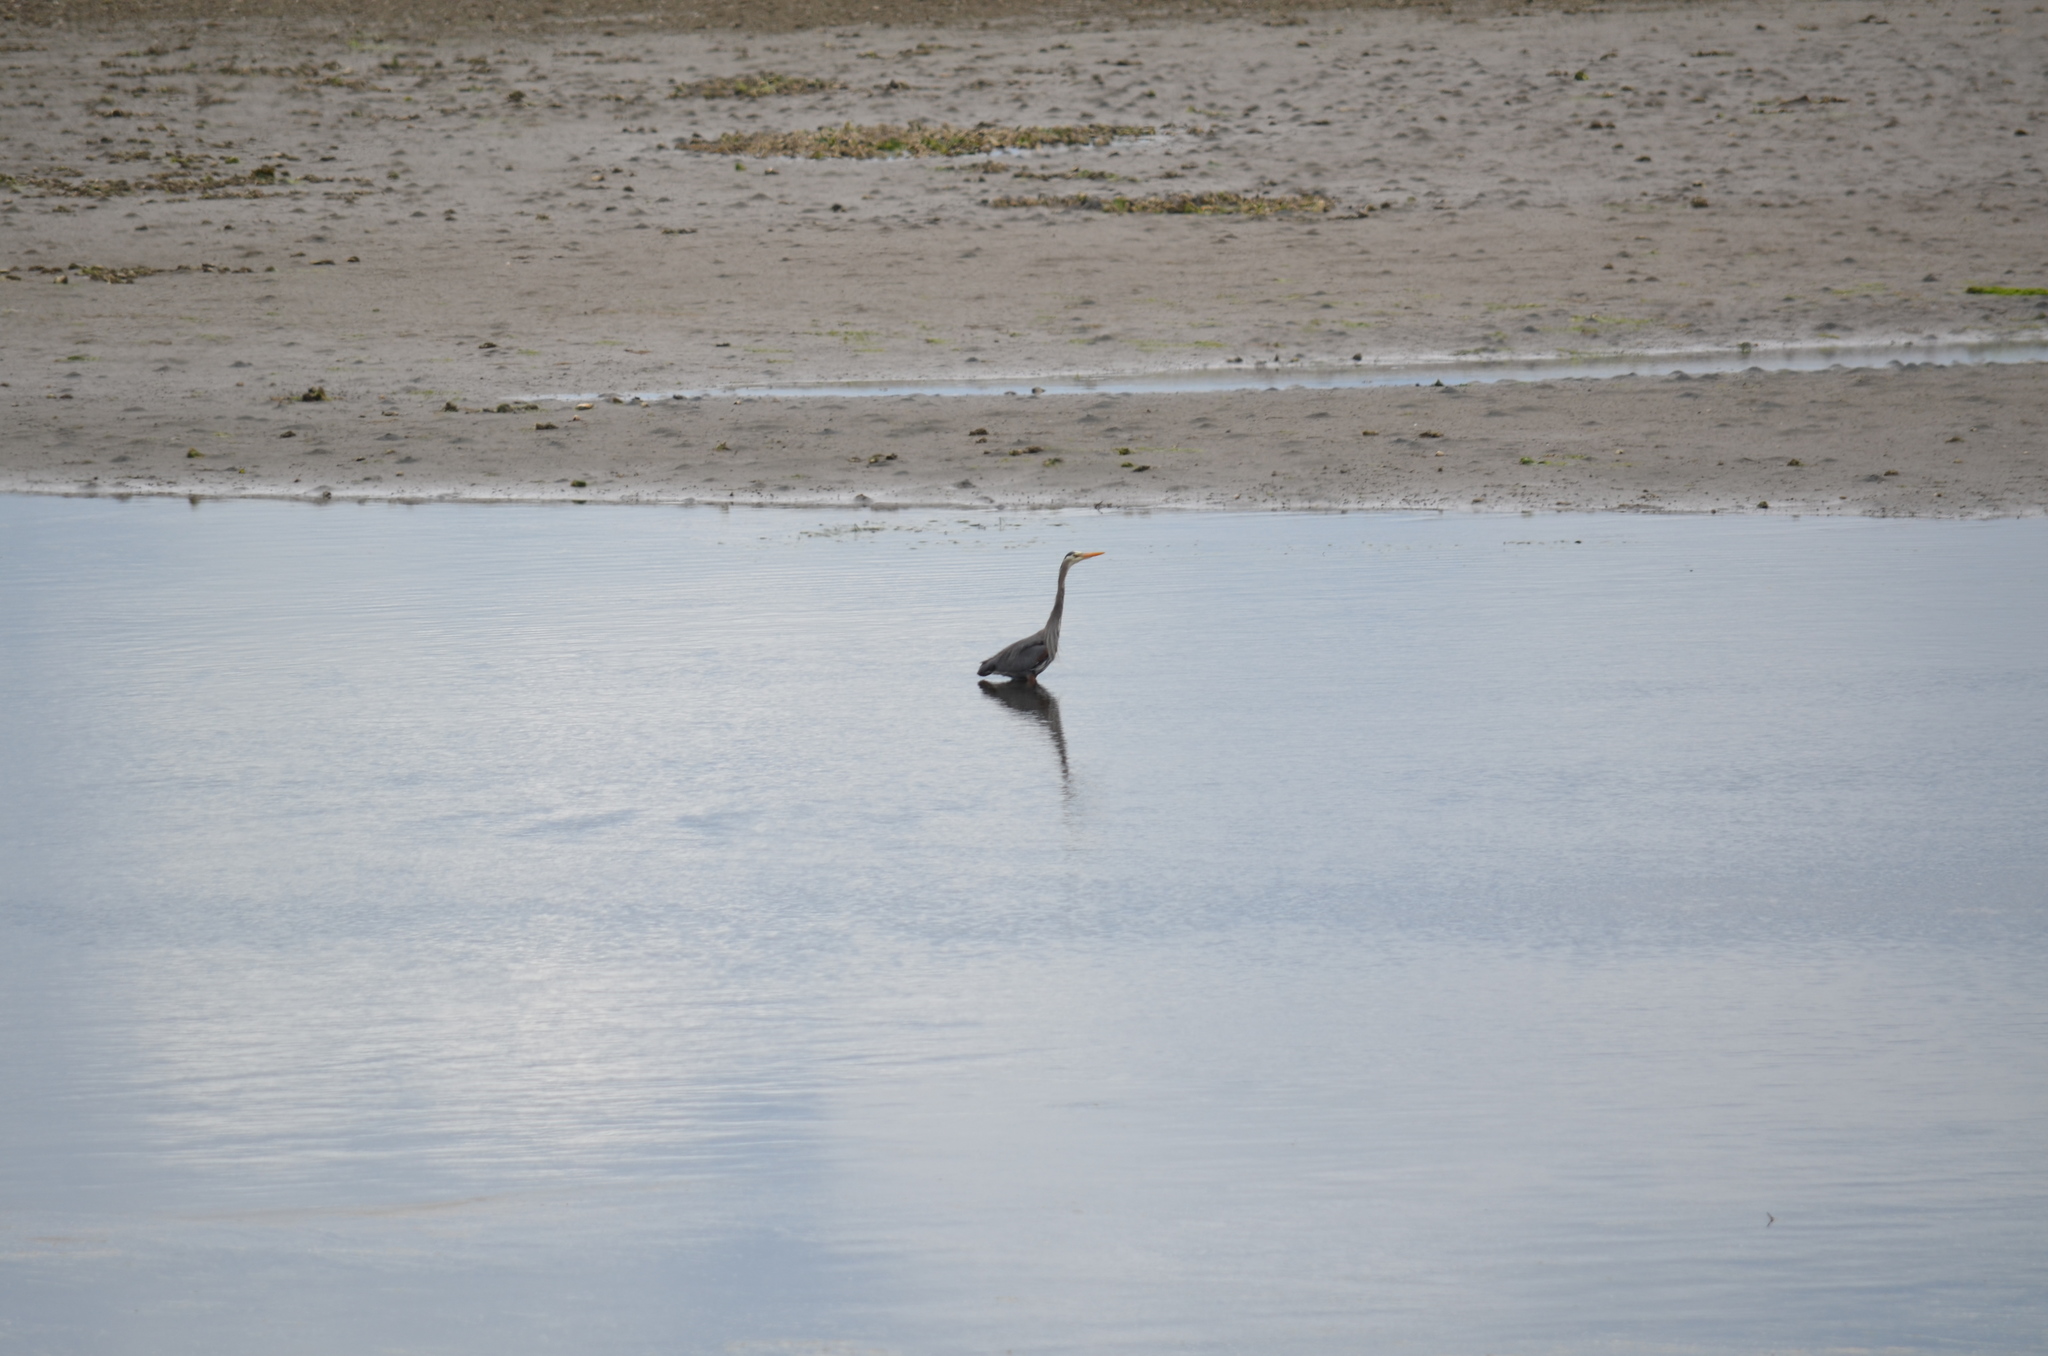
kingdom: Animalia
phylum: Chordata
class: Aves
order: Pelecaniformes
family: Ardeidae
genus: Ardea
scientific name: Ardea herodias
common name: Great blue heron
